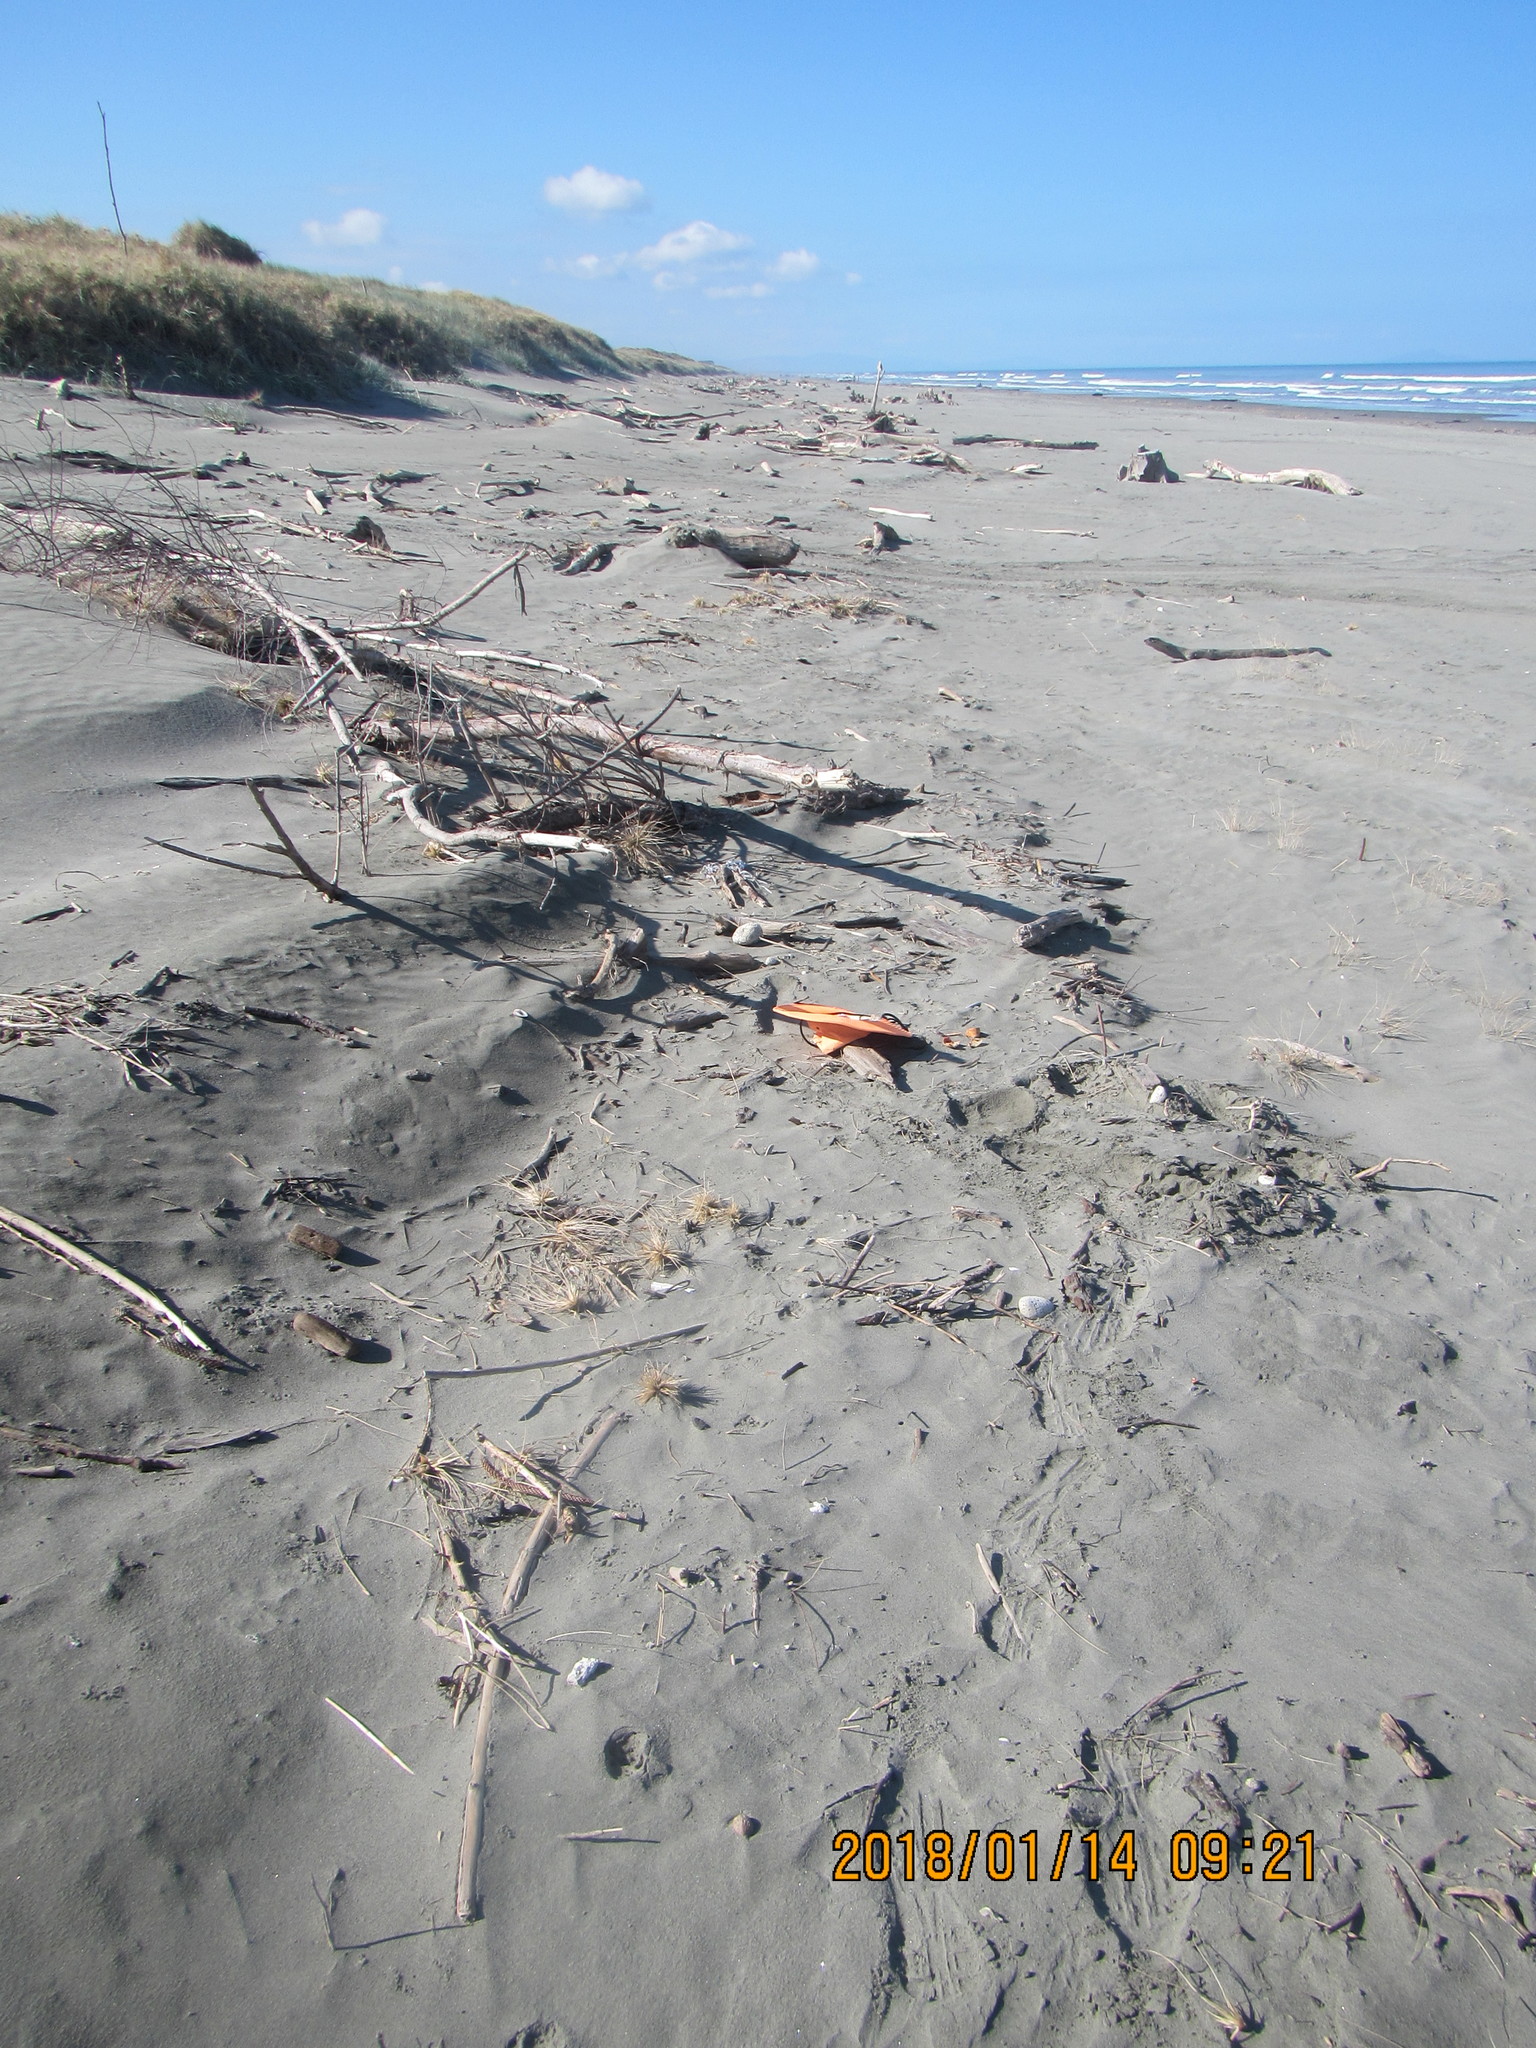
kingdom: Animalia
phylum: Arthropoda
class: Malacostraca
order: Decapoda
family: Palinuridae
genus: Jasus
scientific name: Jasus edwardsii
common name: Red rock lobster
